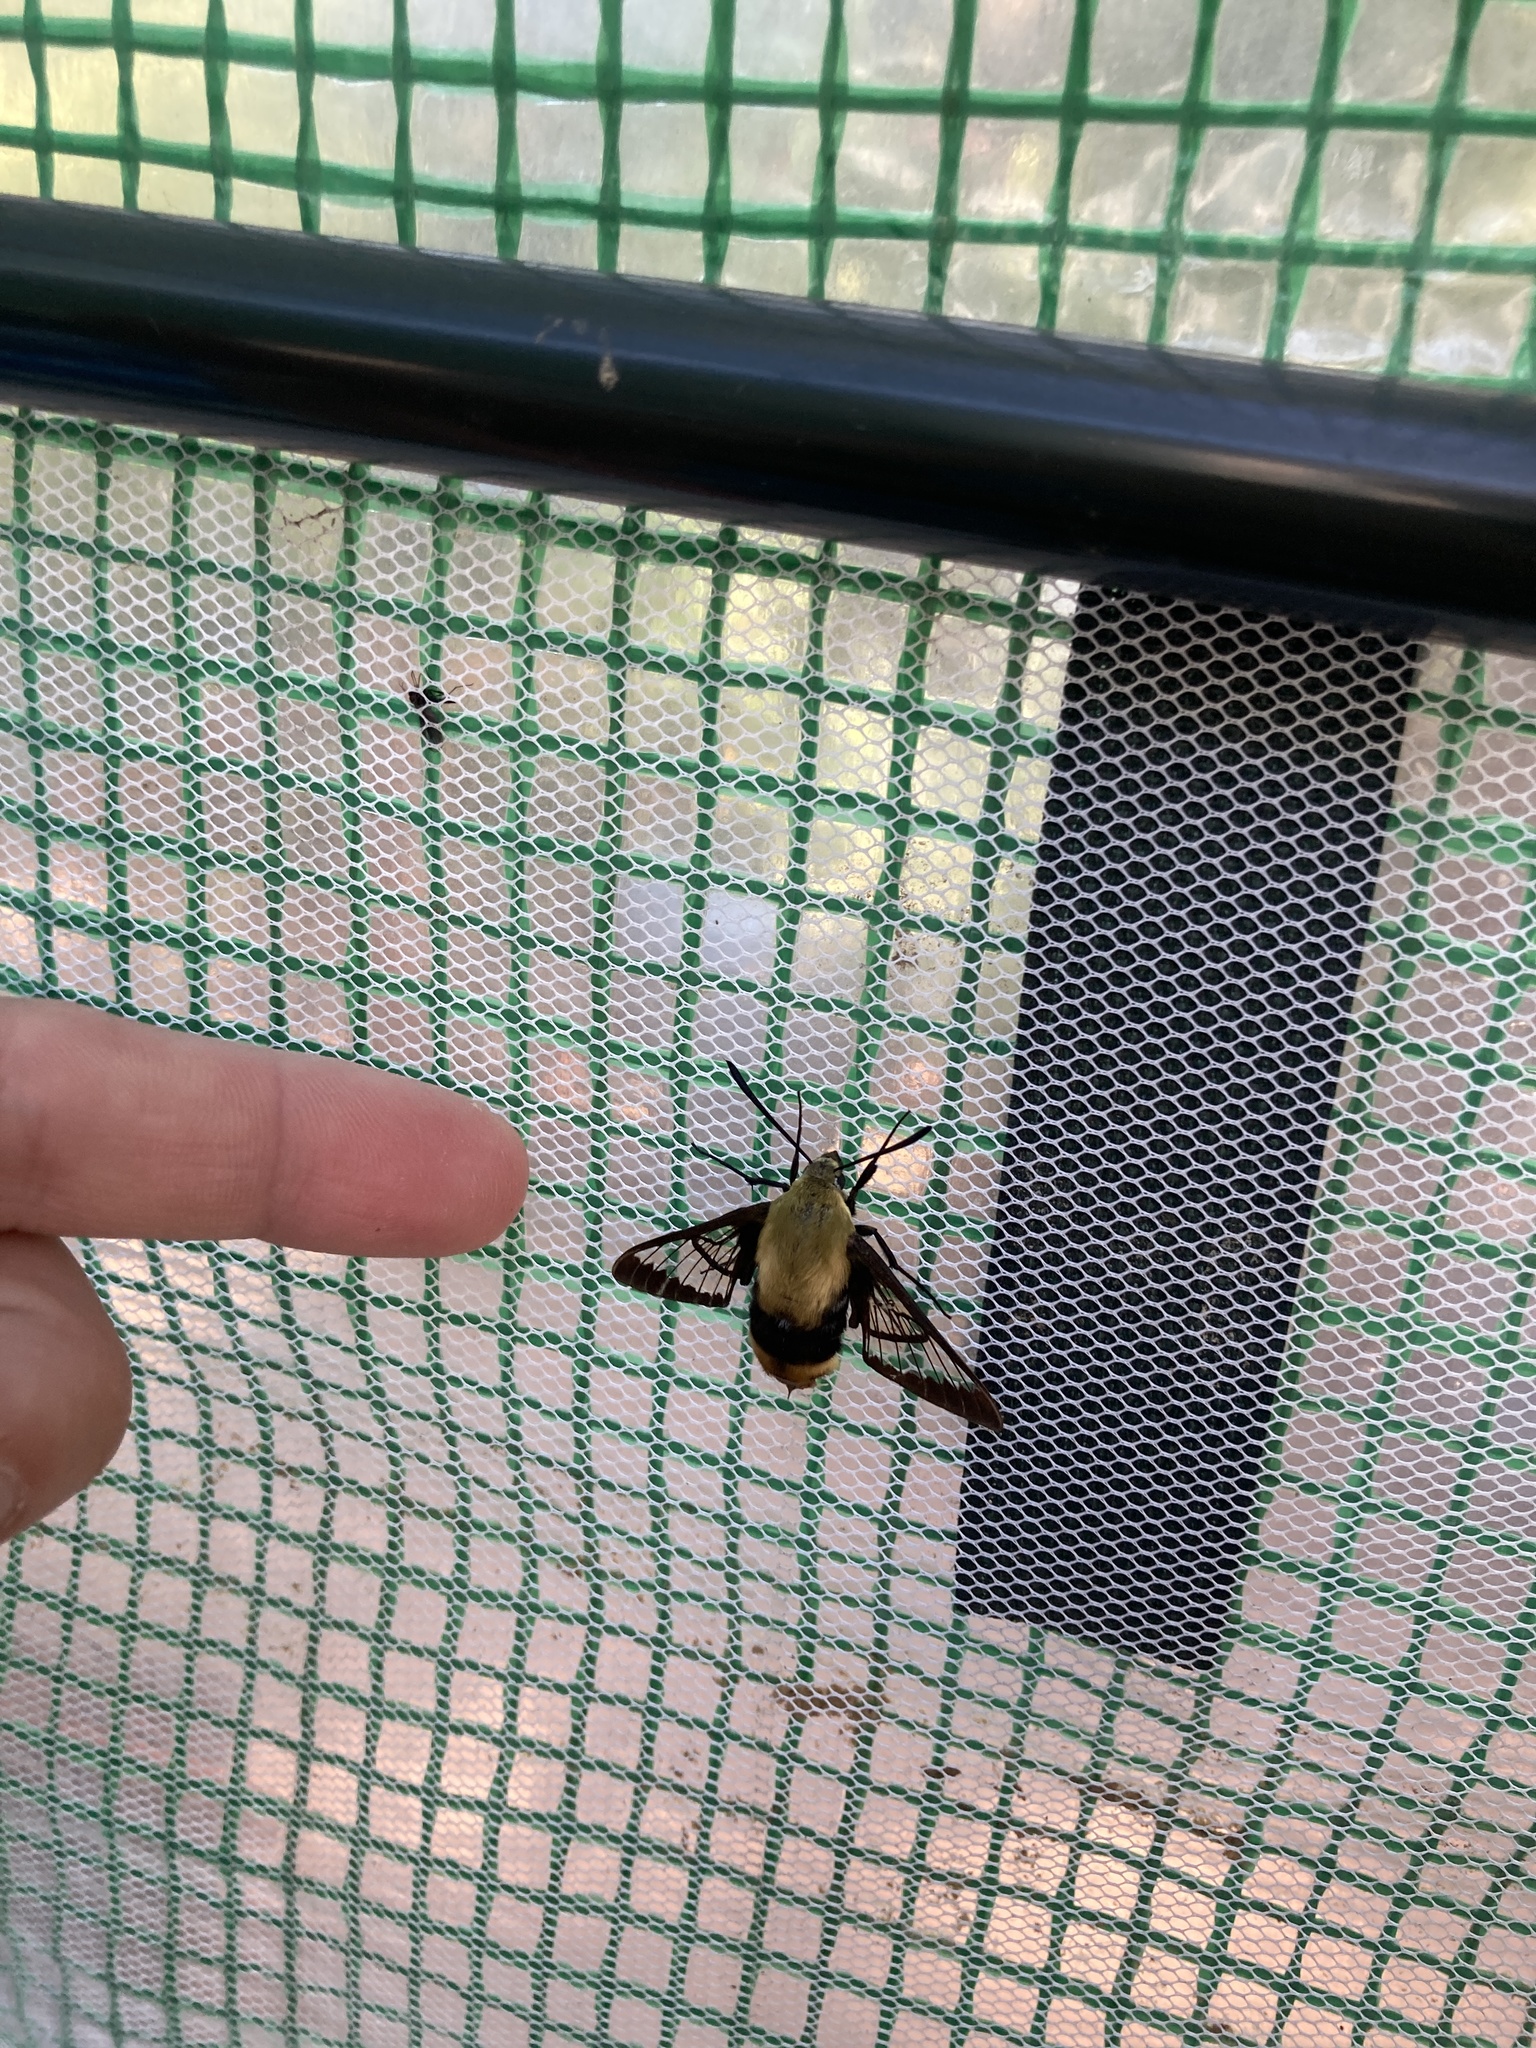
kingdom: Animalia
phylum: Arthropoda
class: Insecta
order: Lepidoptera
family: Sphingidae
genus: Hemaris
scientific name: Hemaris diffinis
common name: Bumblebee moth
